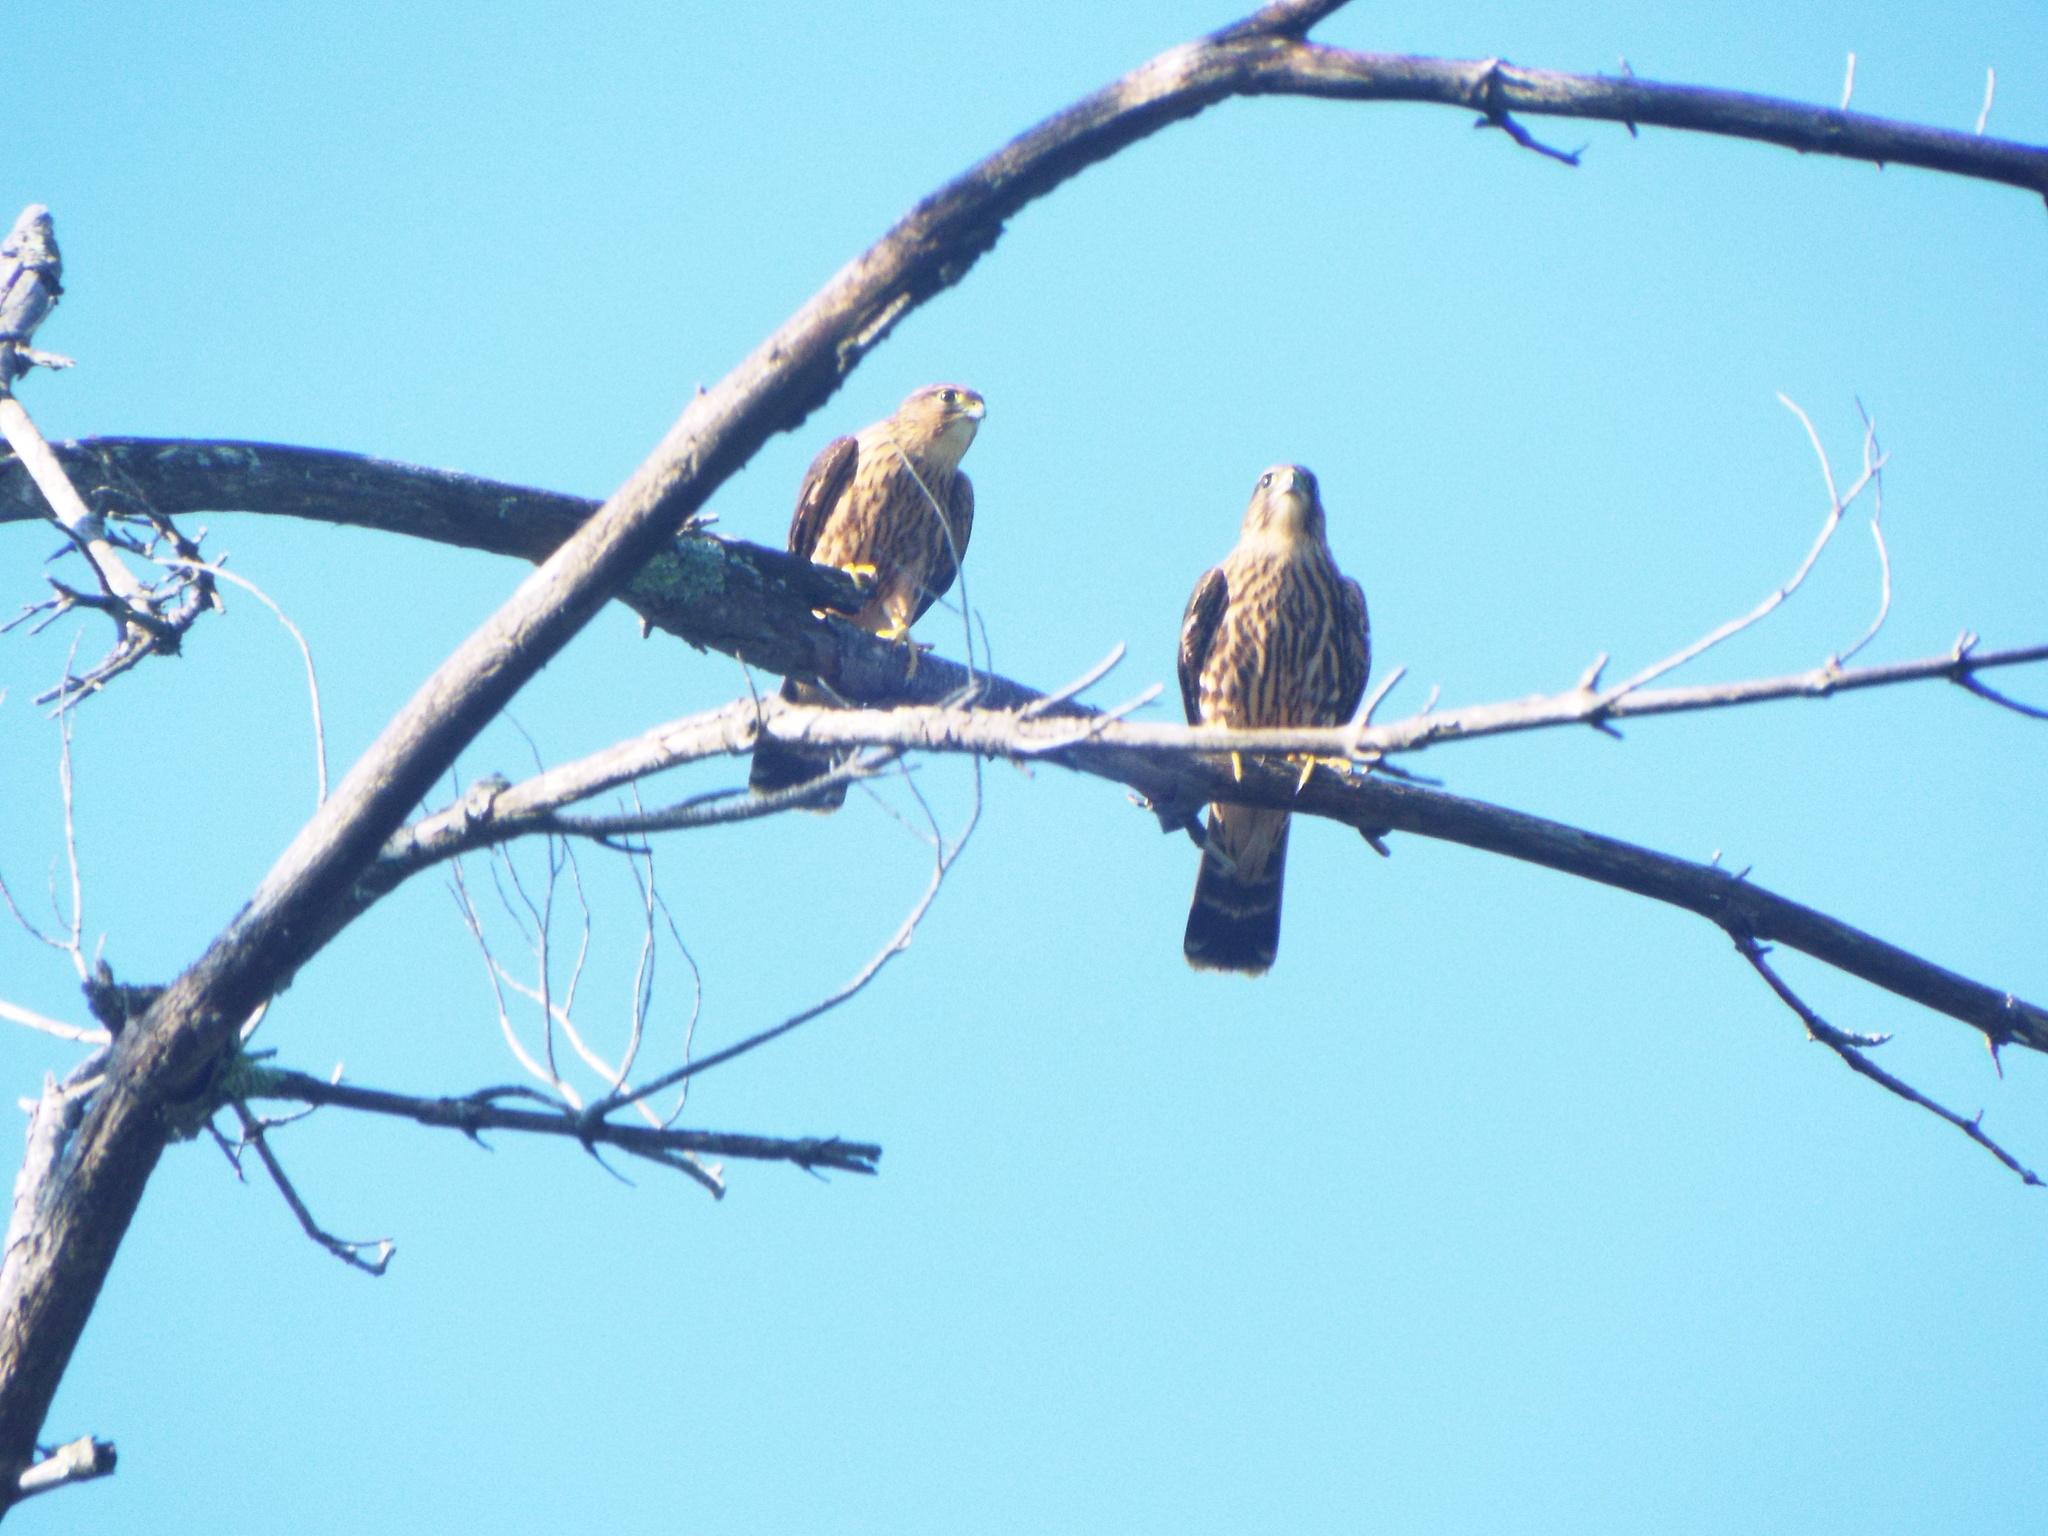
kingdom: Animalia
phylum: Chordata
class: Aves
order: Falconiformes
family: Falconidae
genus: Falco
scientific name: Falco columbarius
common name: Merlin
